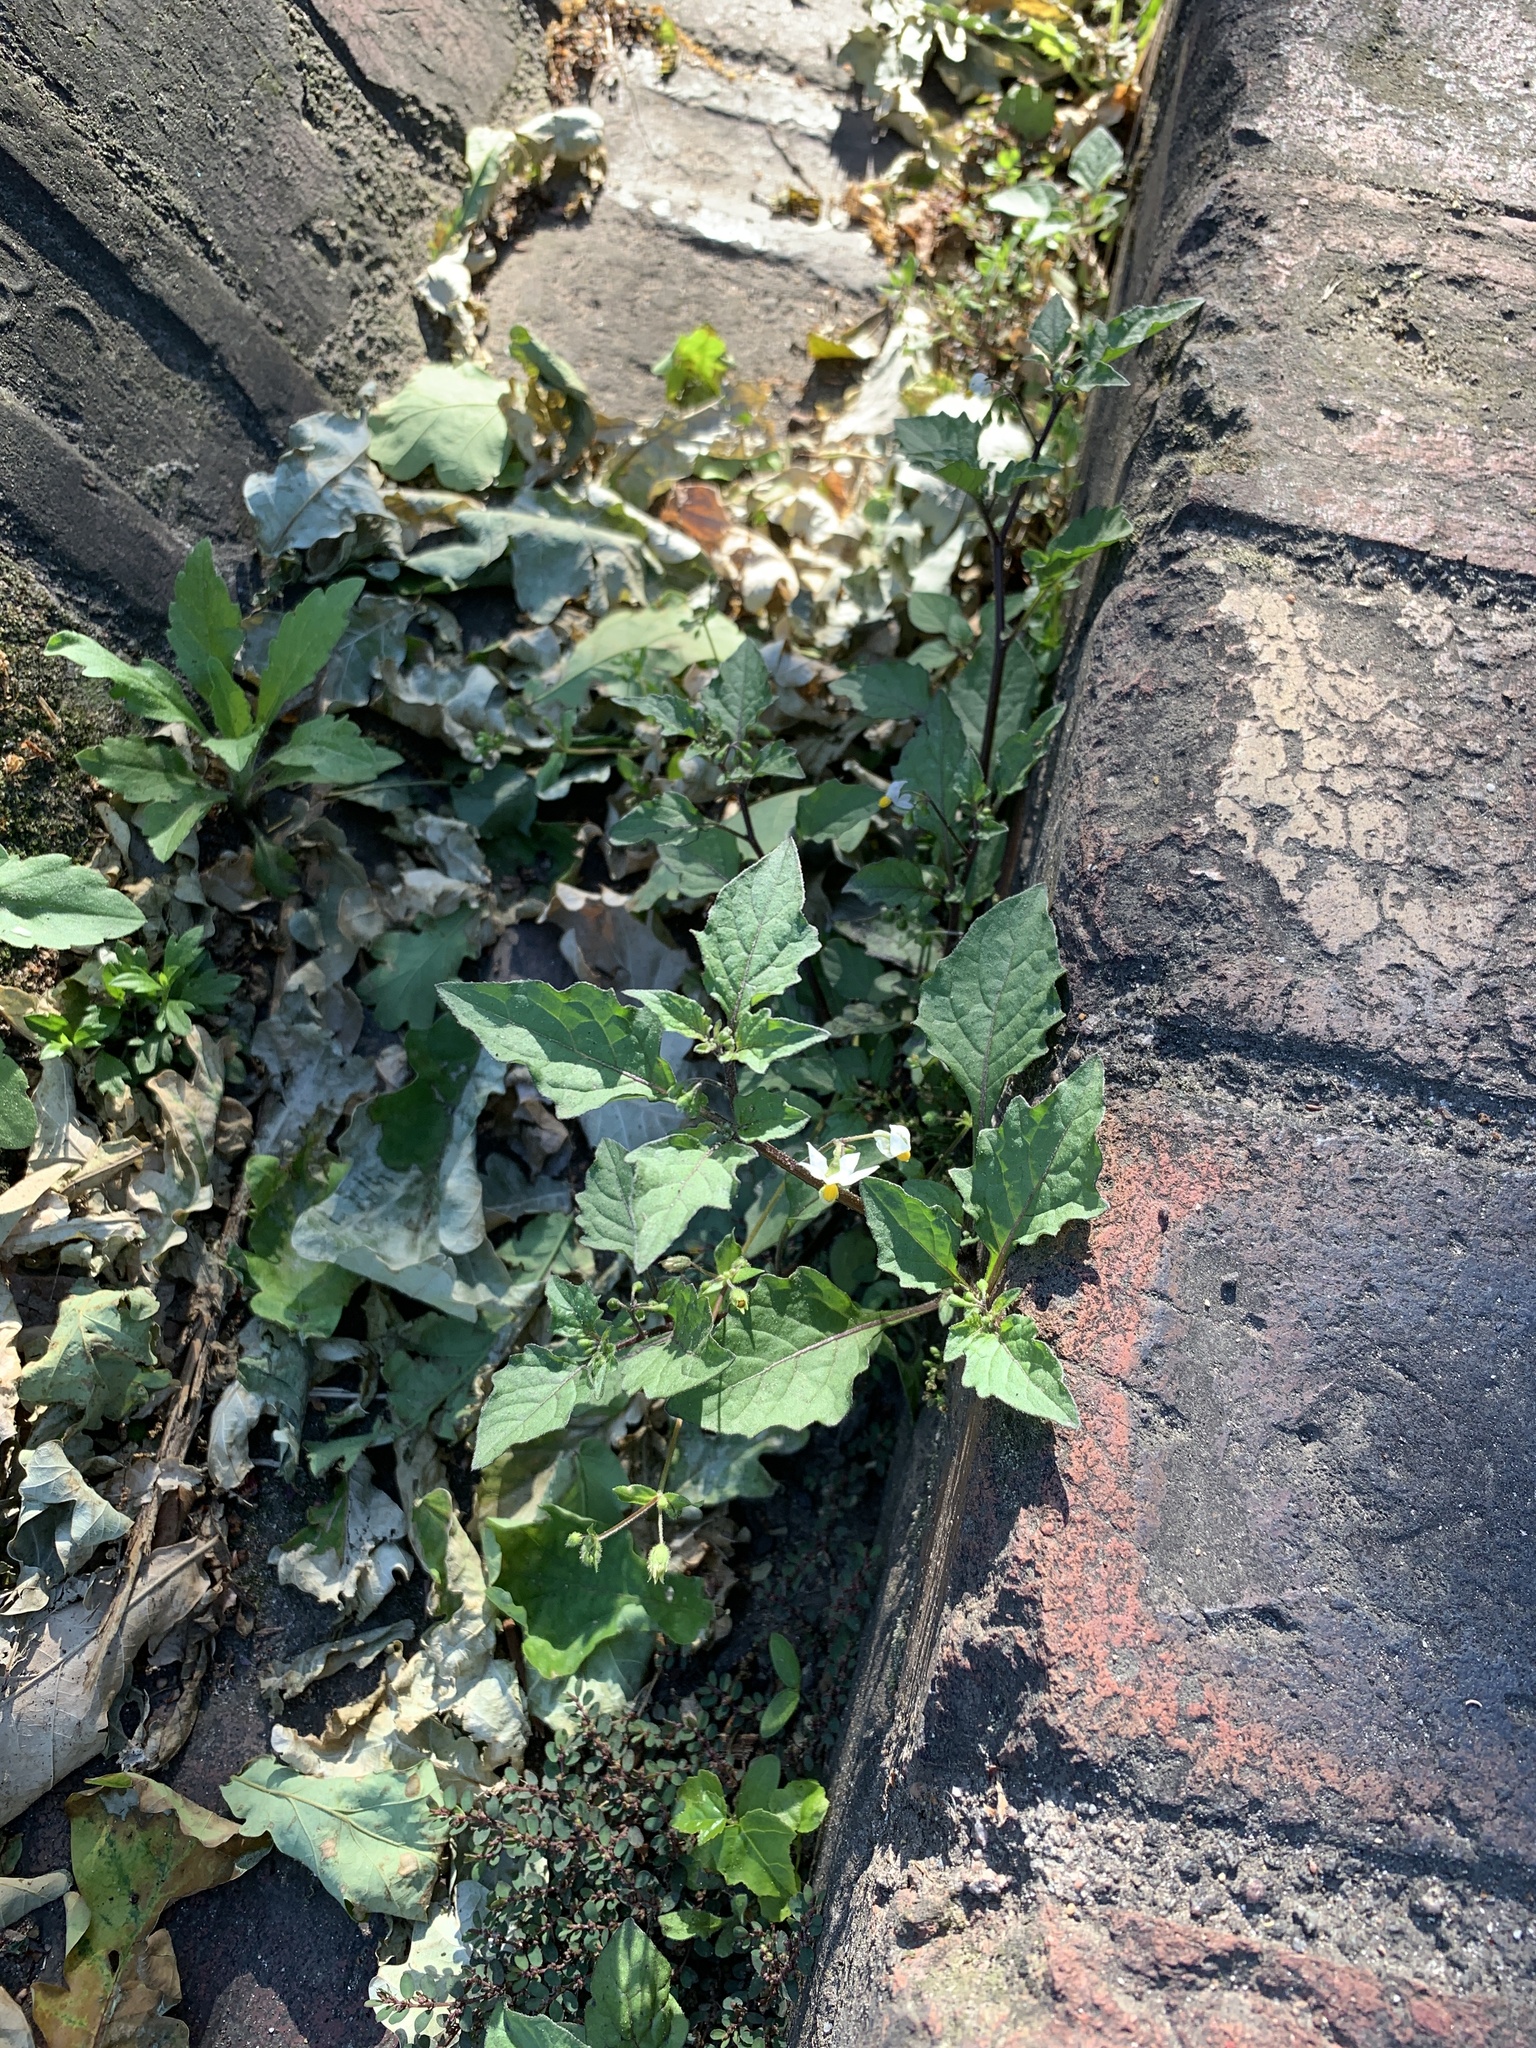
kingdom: Plantae
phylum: Tracheophyta
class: Magnoliopsida
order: Solanales
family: Solanaceae
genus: Solanum
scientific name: Solanum nigrum
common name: Black nightshade
